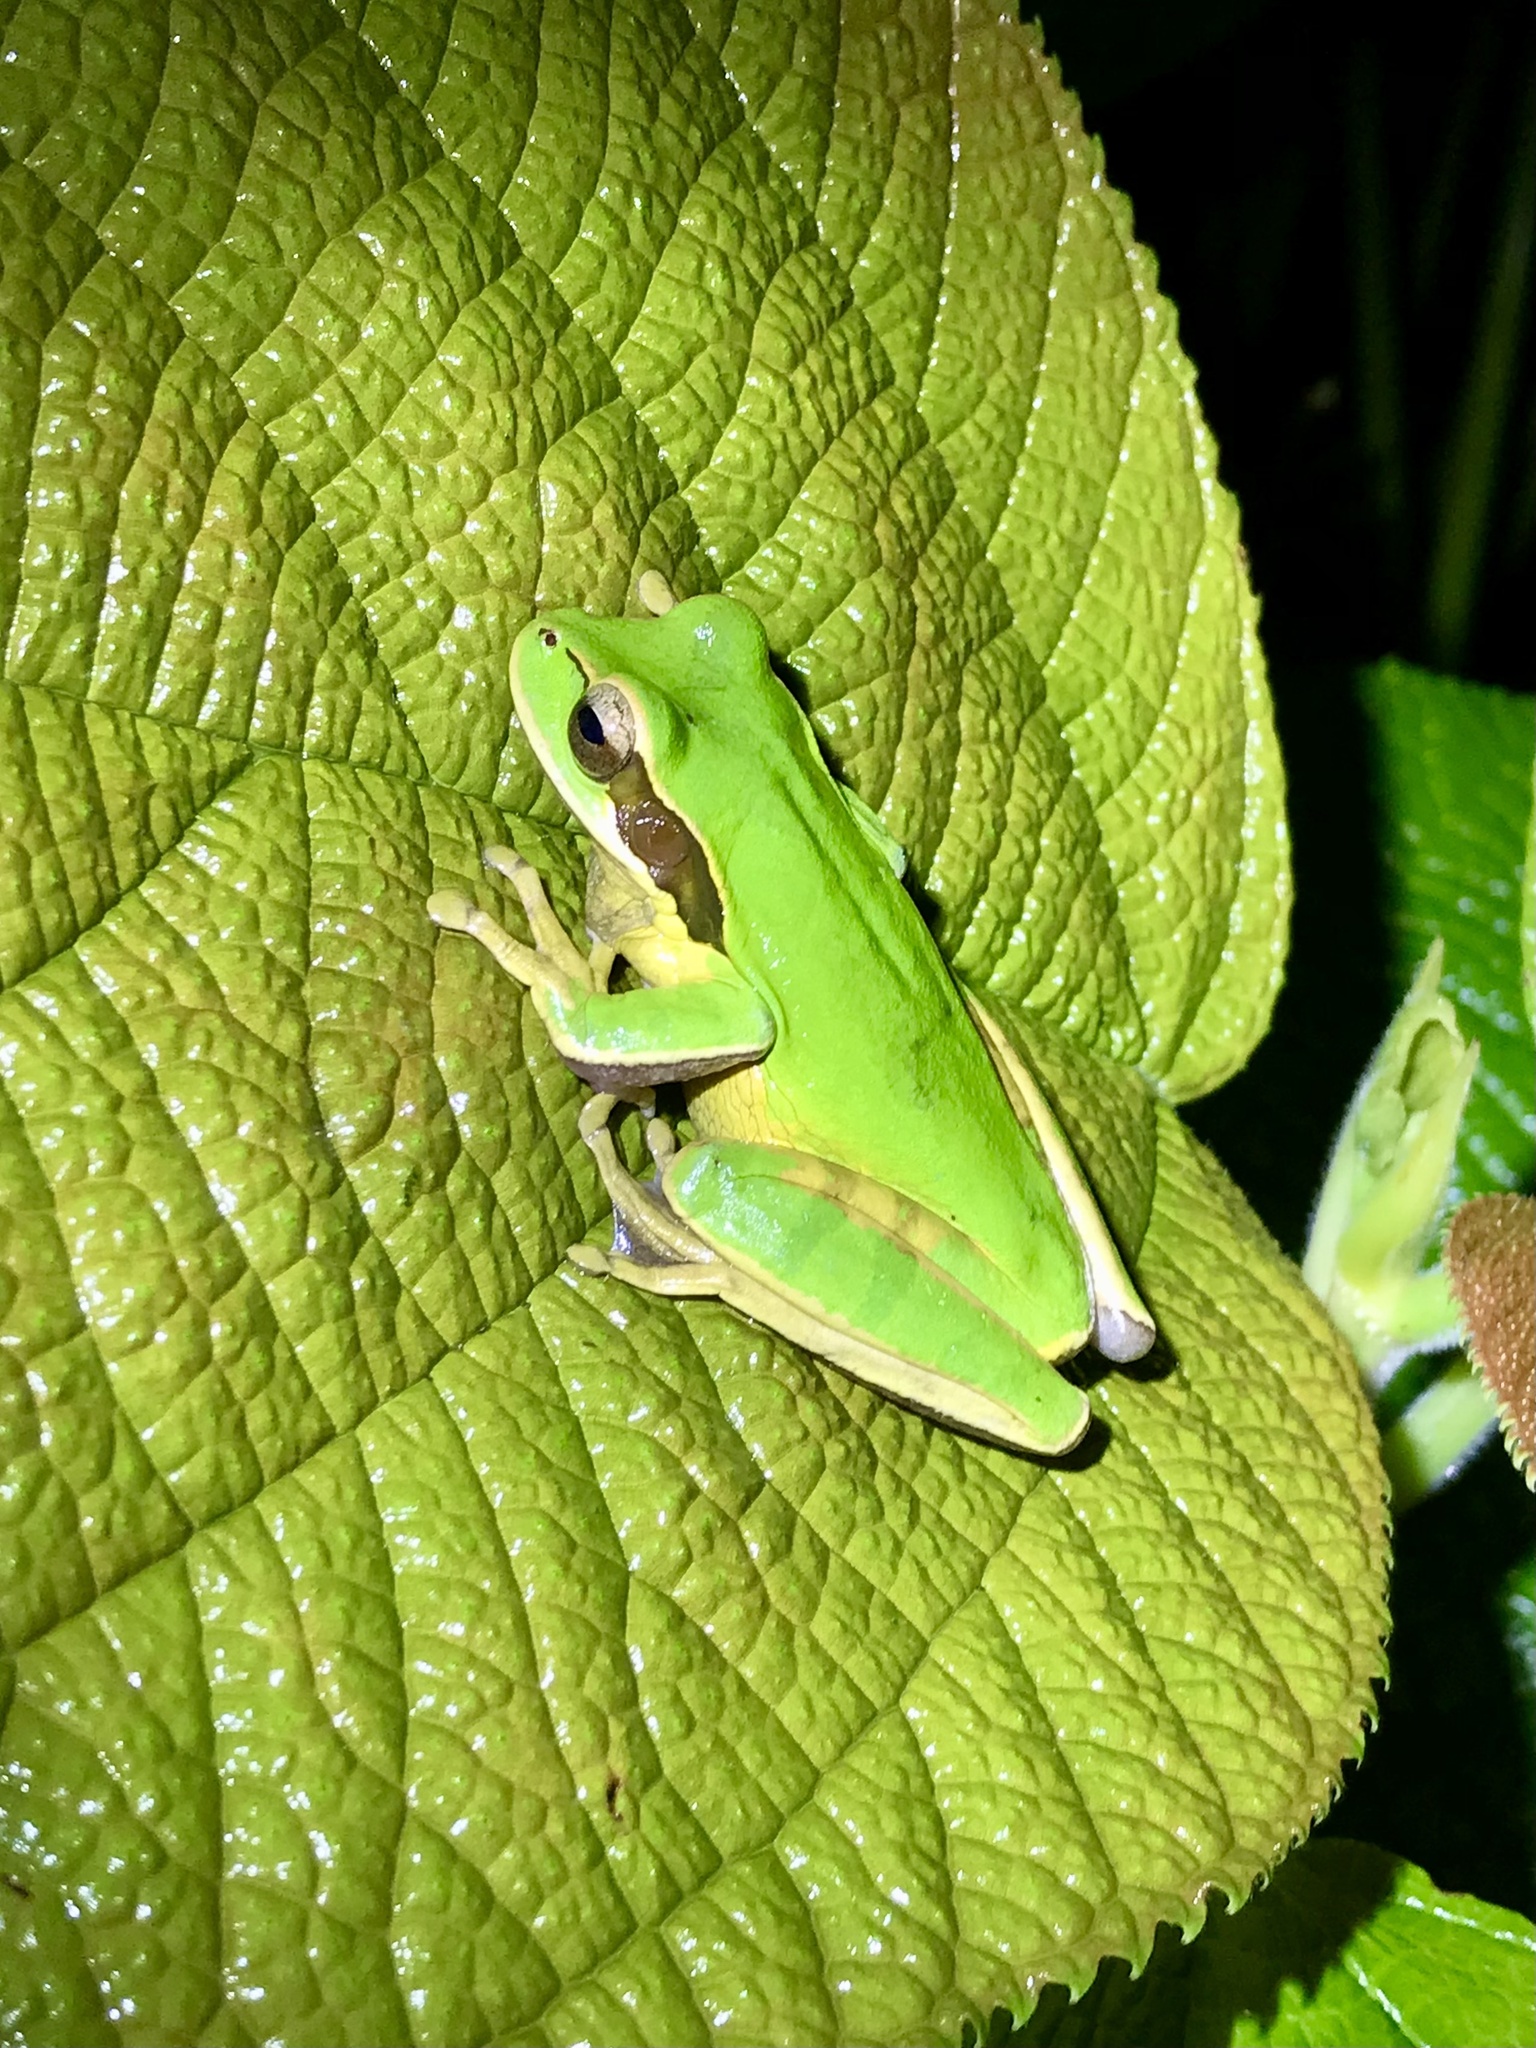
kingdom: Animalia
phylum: Chordata
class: Amphibia
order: Anura
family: Hylidae
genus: Smilisca
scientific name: Smilisca phaeota
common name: Central american smilisca
